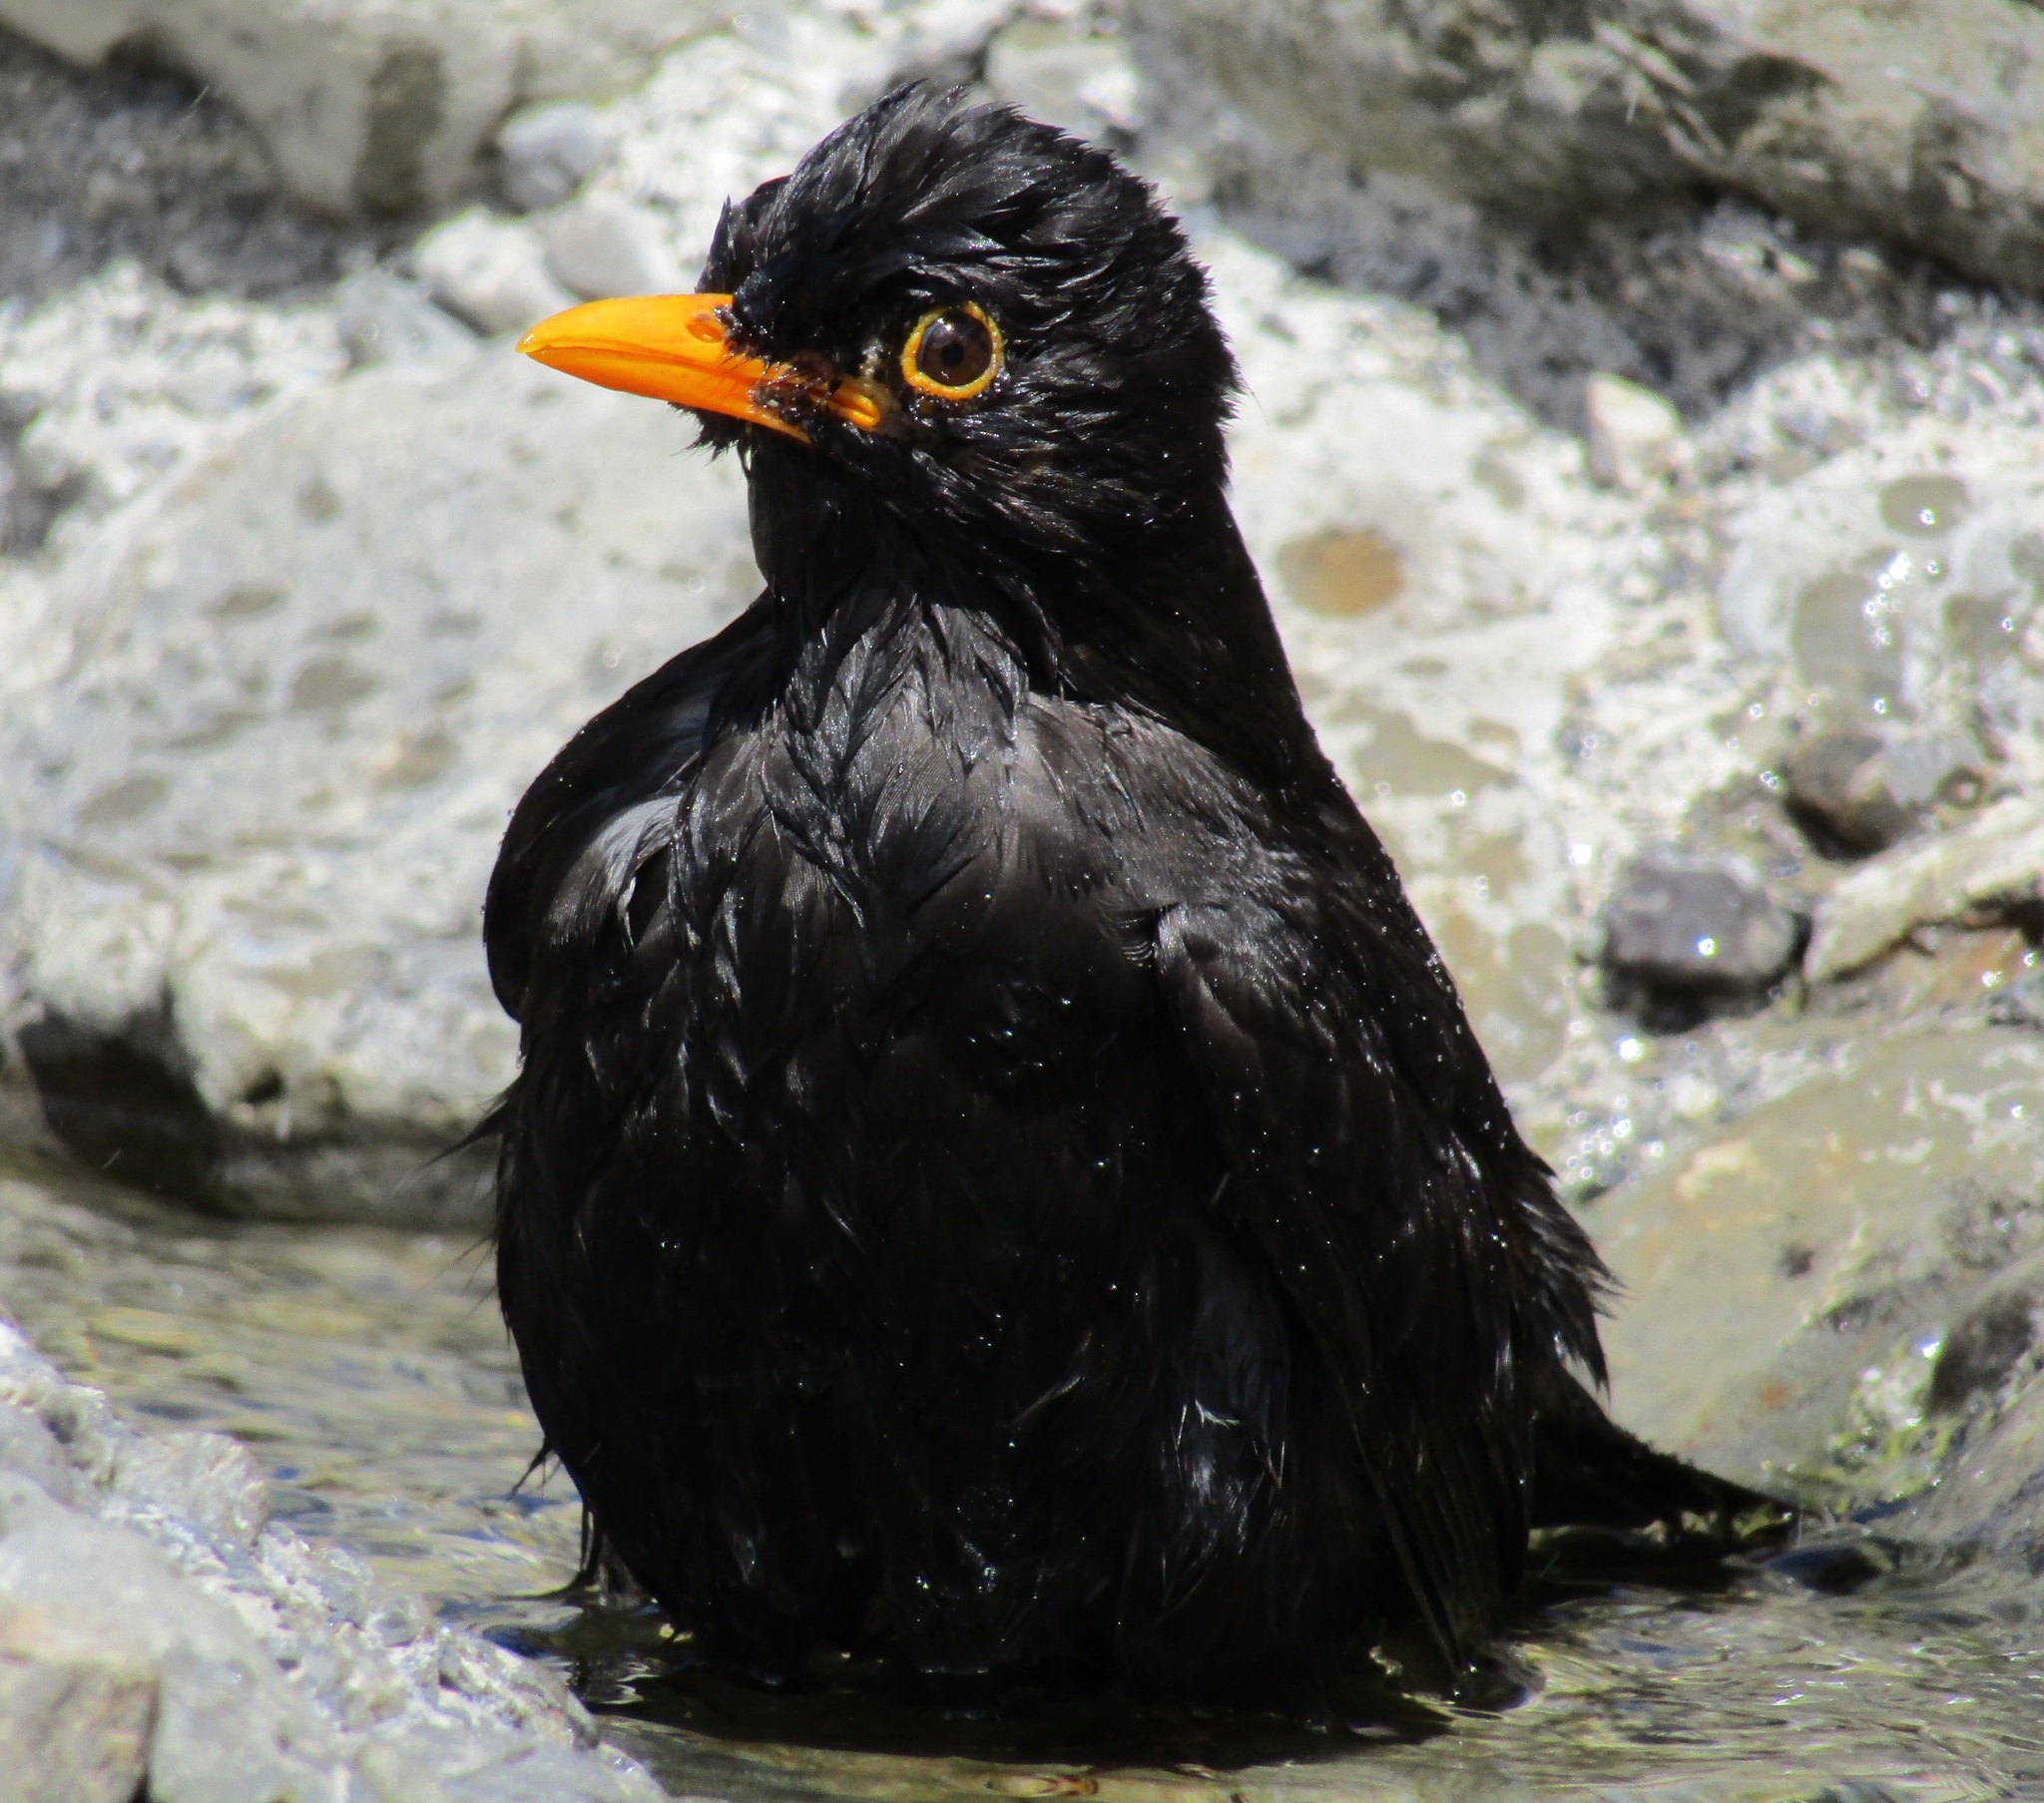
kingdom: Animalia
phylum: Chordata
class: Aves
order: Passeriformes
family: Turdidae
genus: Turdus
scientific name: Turdus merula
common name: Common blackbird
